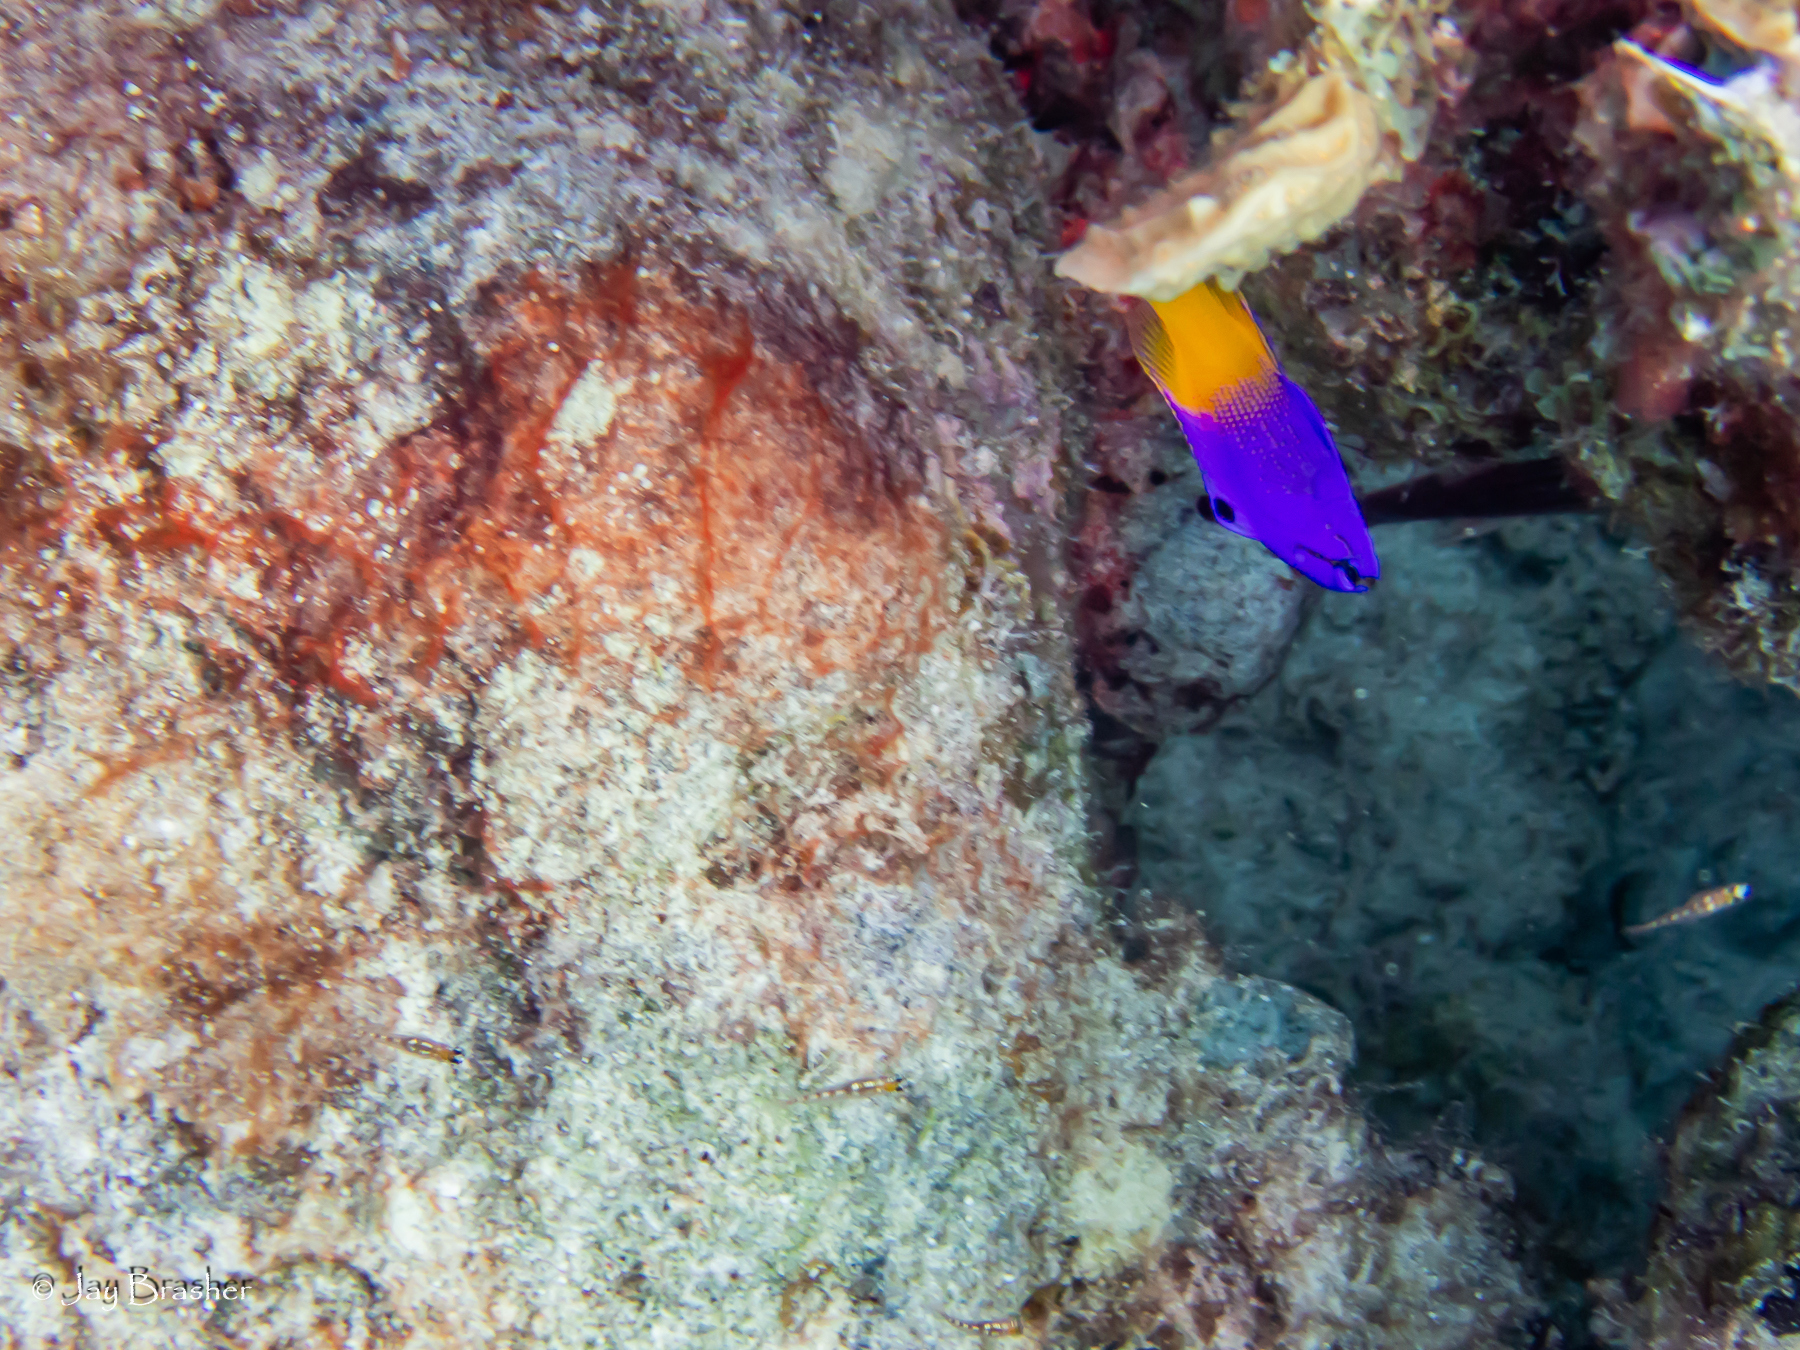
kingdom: Animalia
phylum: Chordata
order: Perciformes
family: Grammatidae
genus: Gramma
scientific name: Gramma loreto
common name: Fairy basslet
